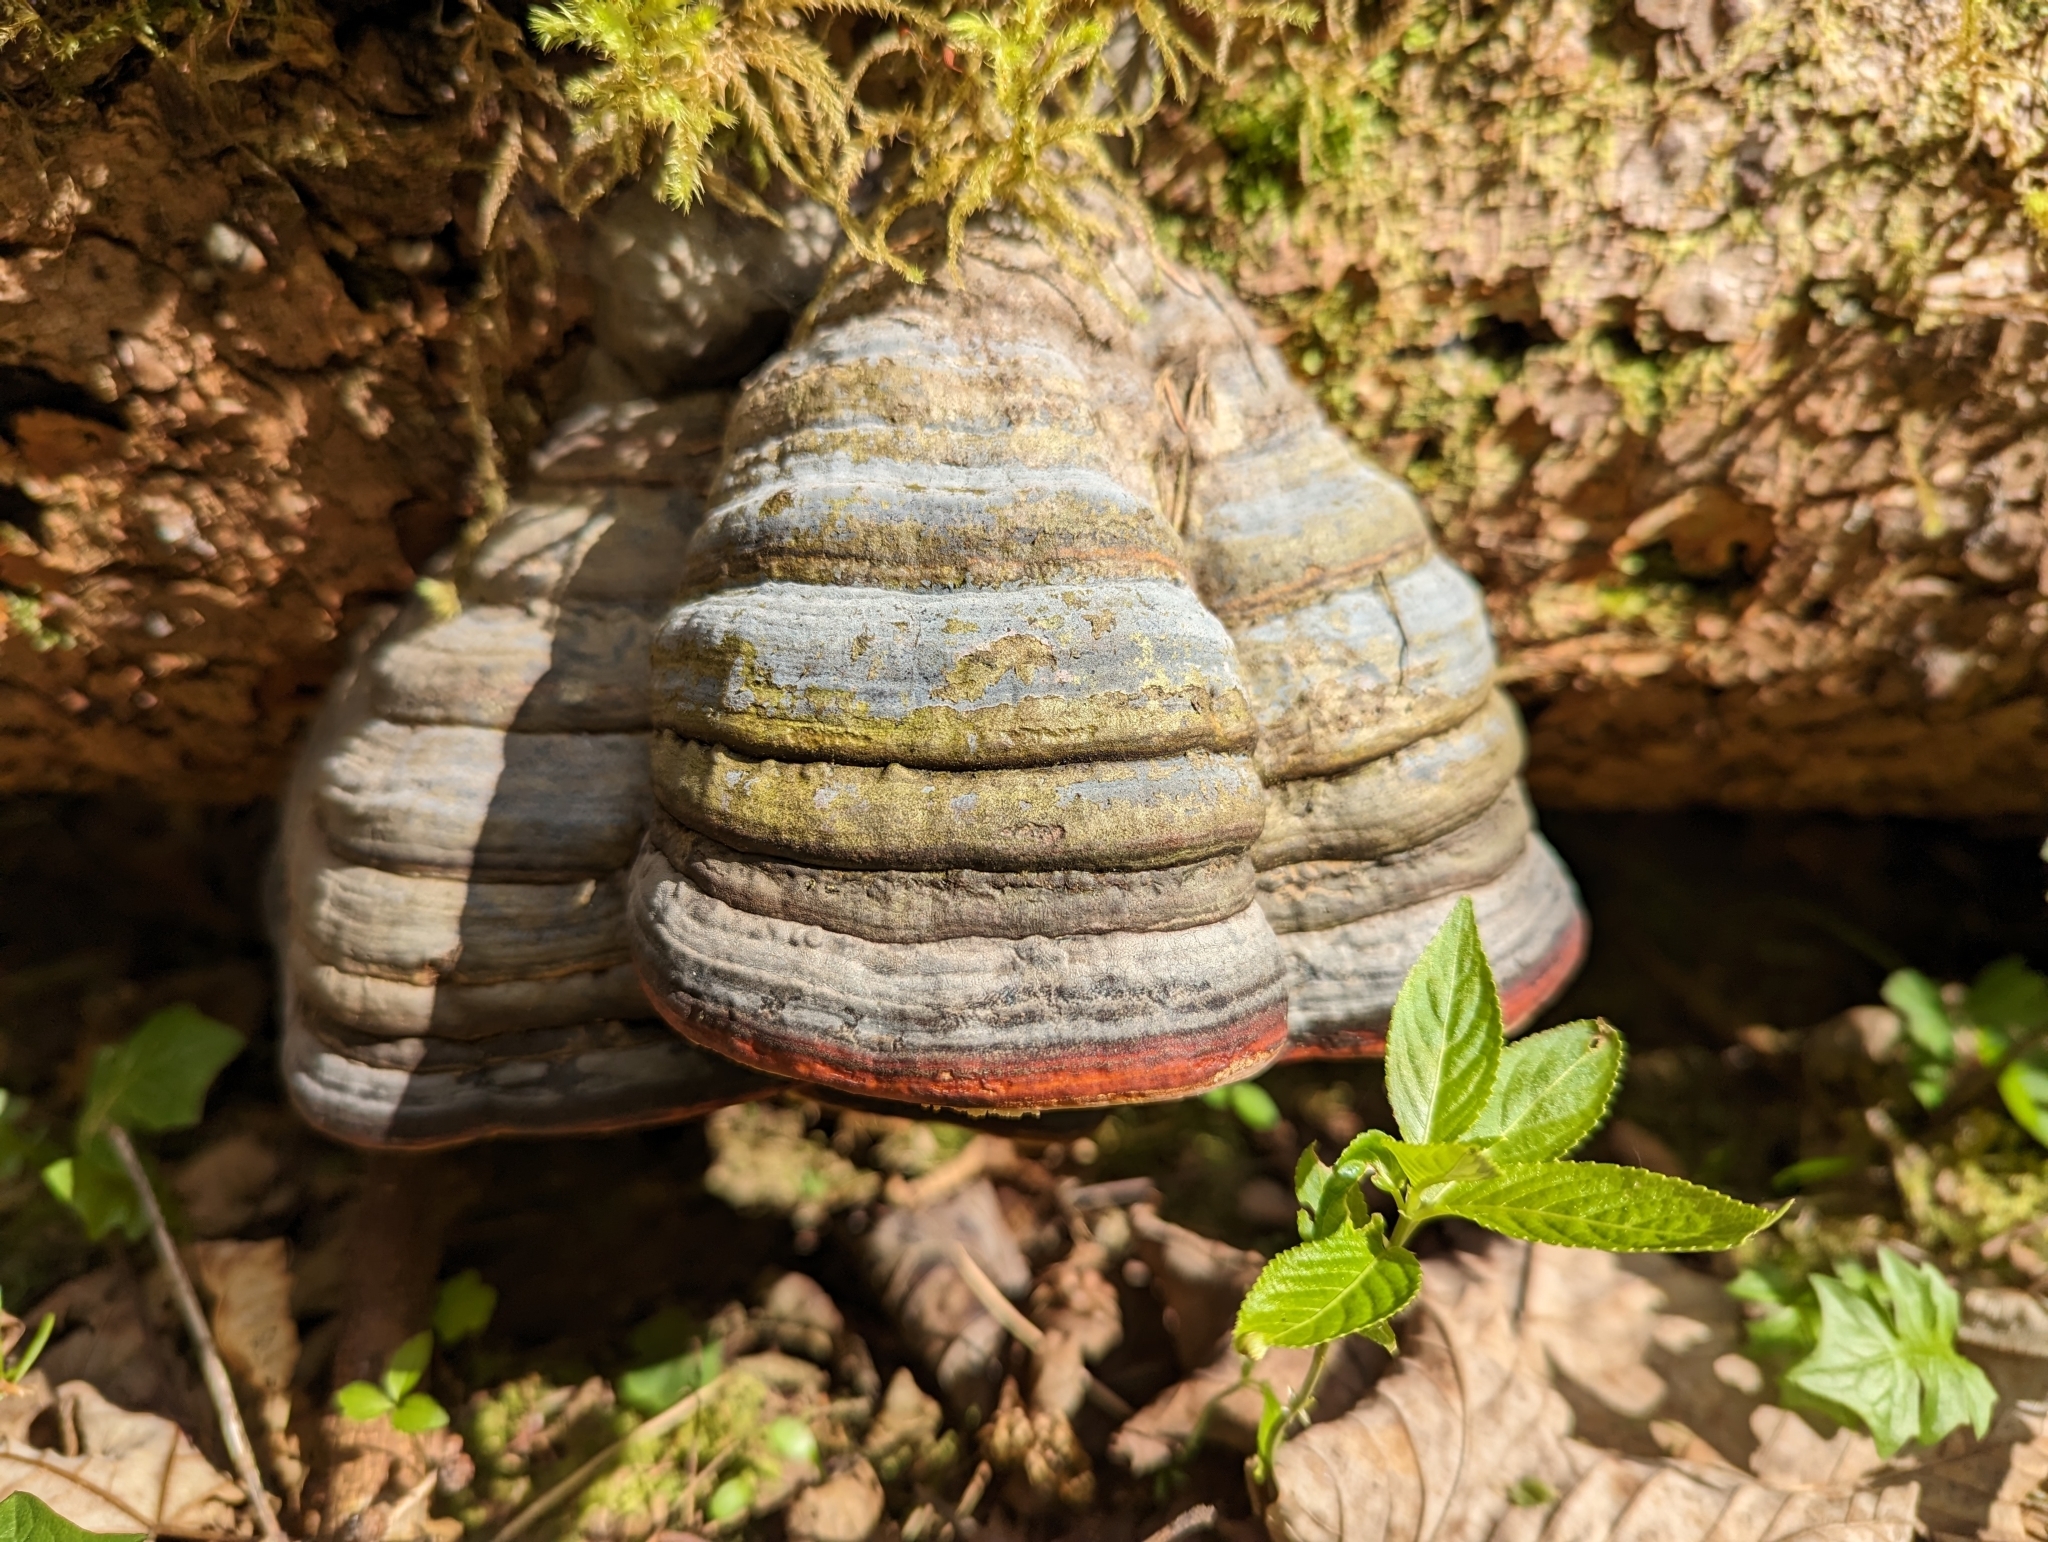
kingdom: Fungi
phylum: Basidiomycota
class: Agaricomycetes
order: Polyporales
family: Fomitopsidaceae
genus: Fomitopsis
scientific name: Fomitopsis pinicola
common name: Red-belted bracket
